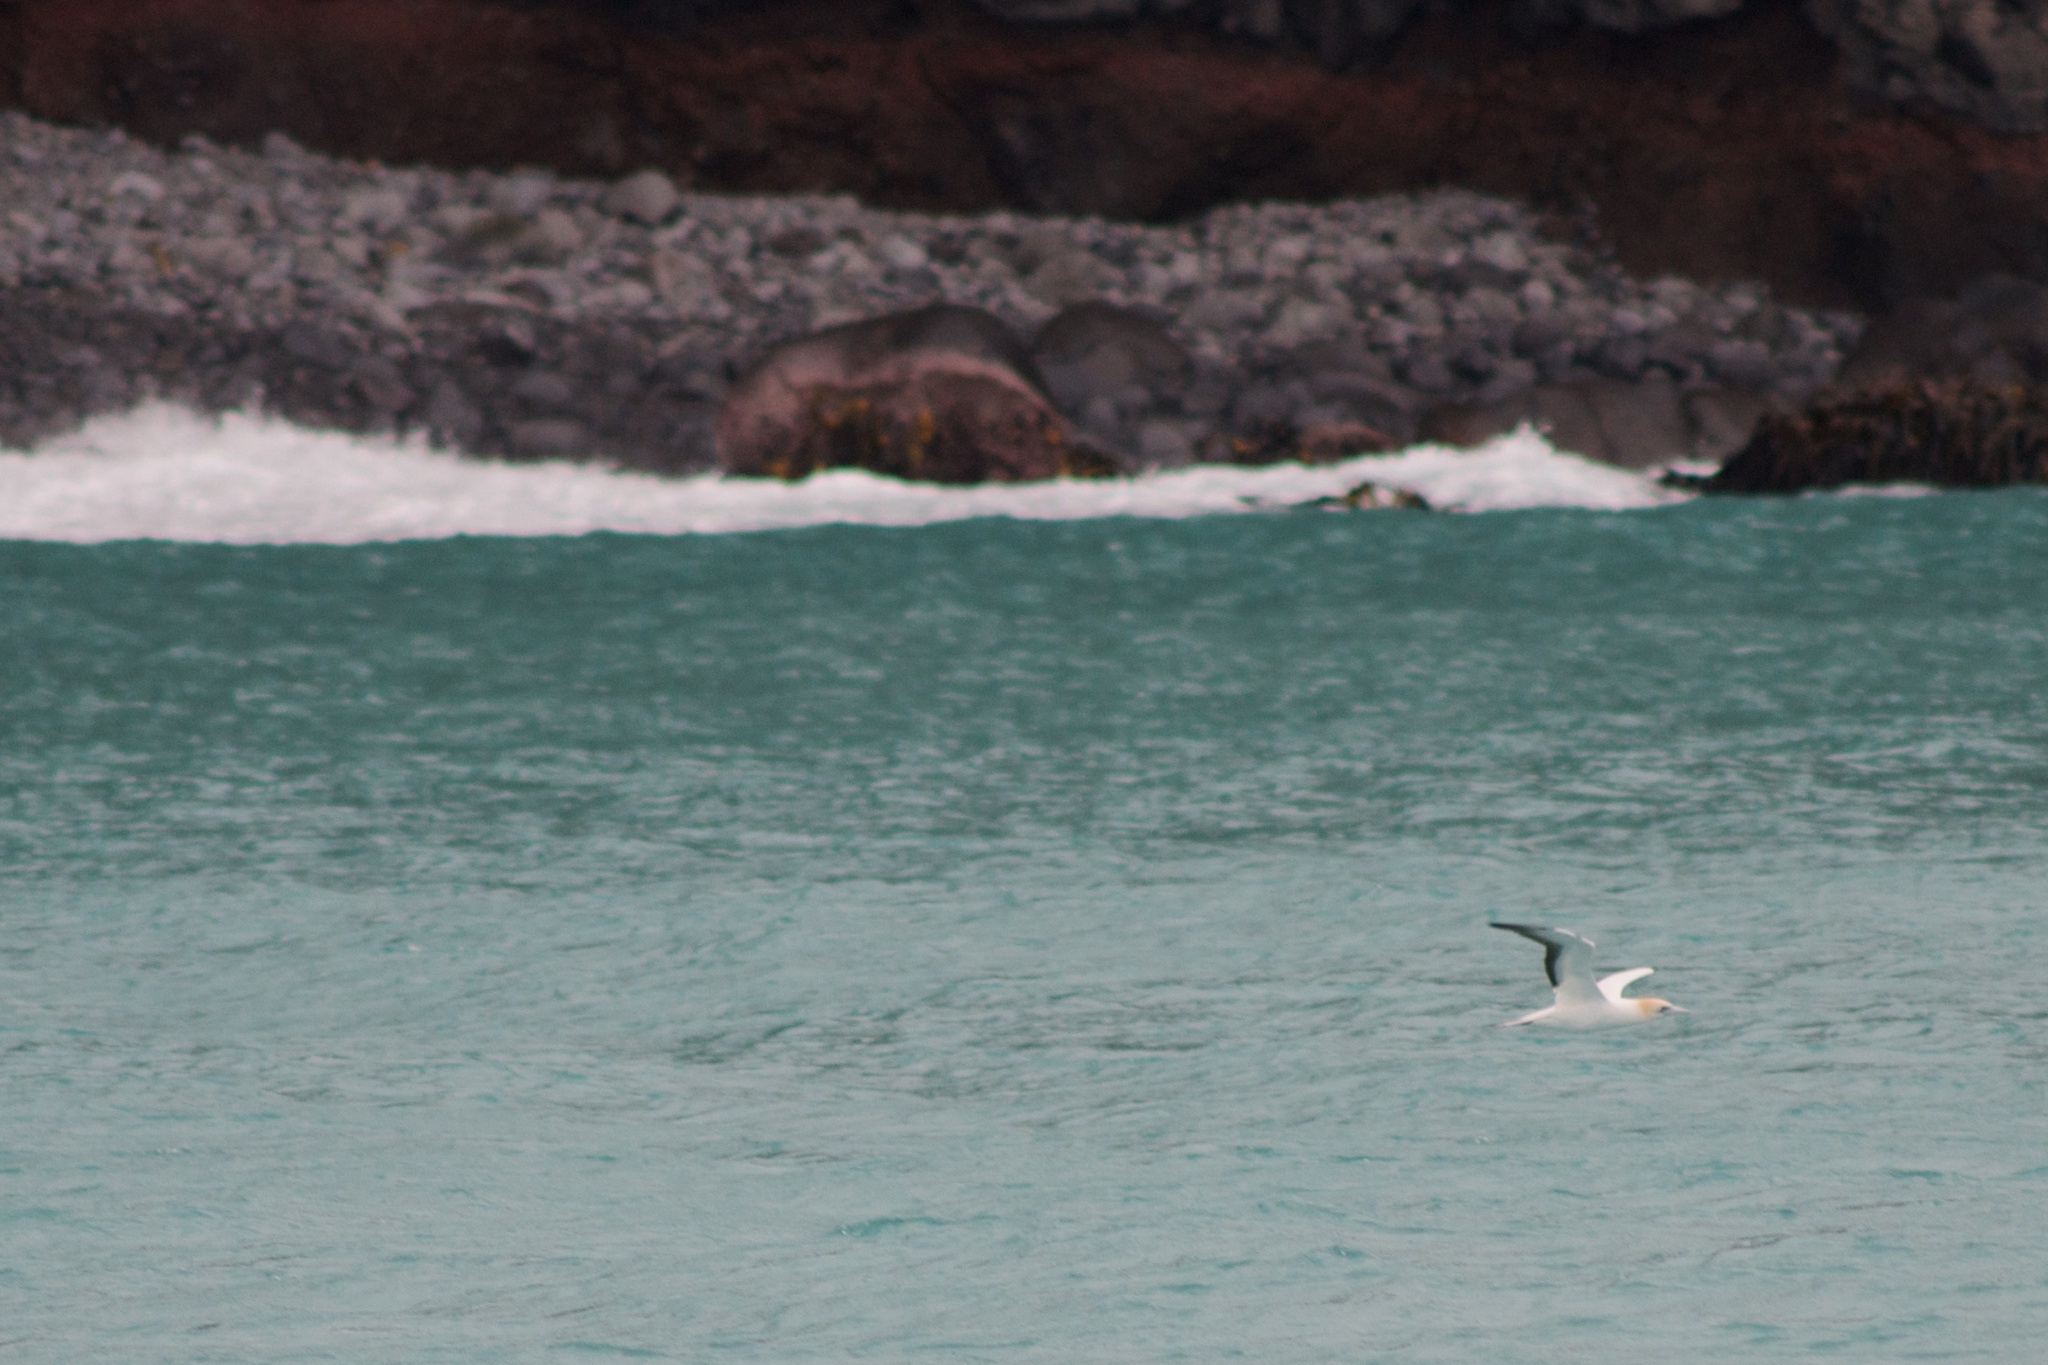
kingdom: Animalia
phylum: Chordata
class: Aves
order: Suliformes
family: Sulidae
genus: Morus
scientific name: Morus serrator
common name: Australasian gannet
